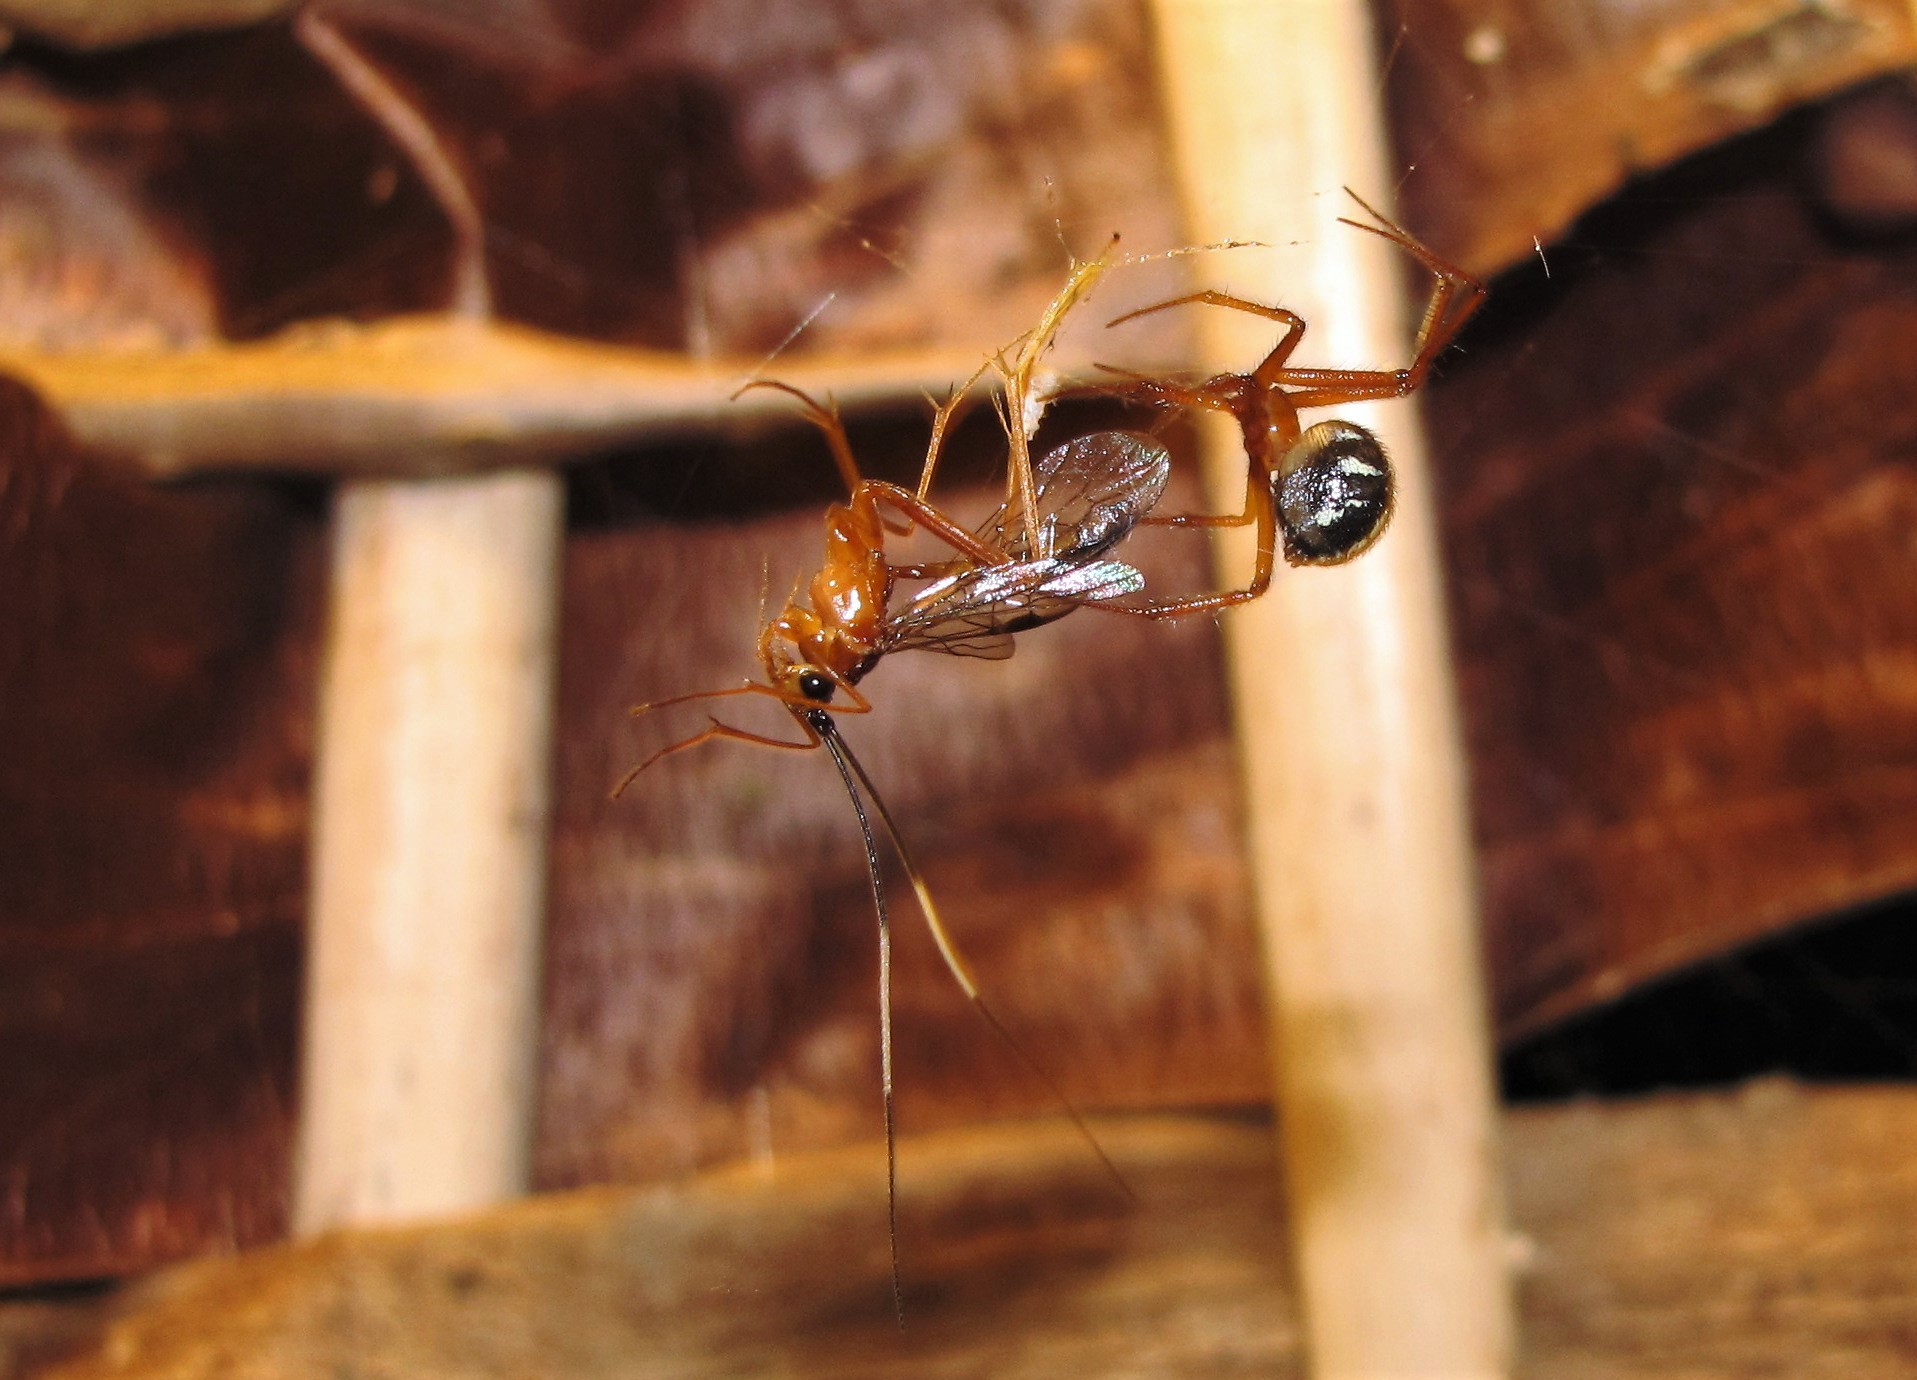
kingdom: Animalia
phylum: Arthropoda
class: Arachnida
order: Araneae
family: Theridiidae
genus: Nesticodes
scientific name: Nesticodes rufipes
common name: Cobweb spiders
